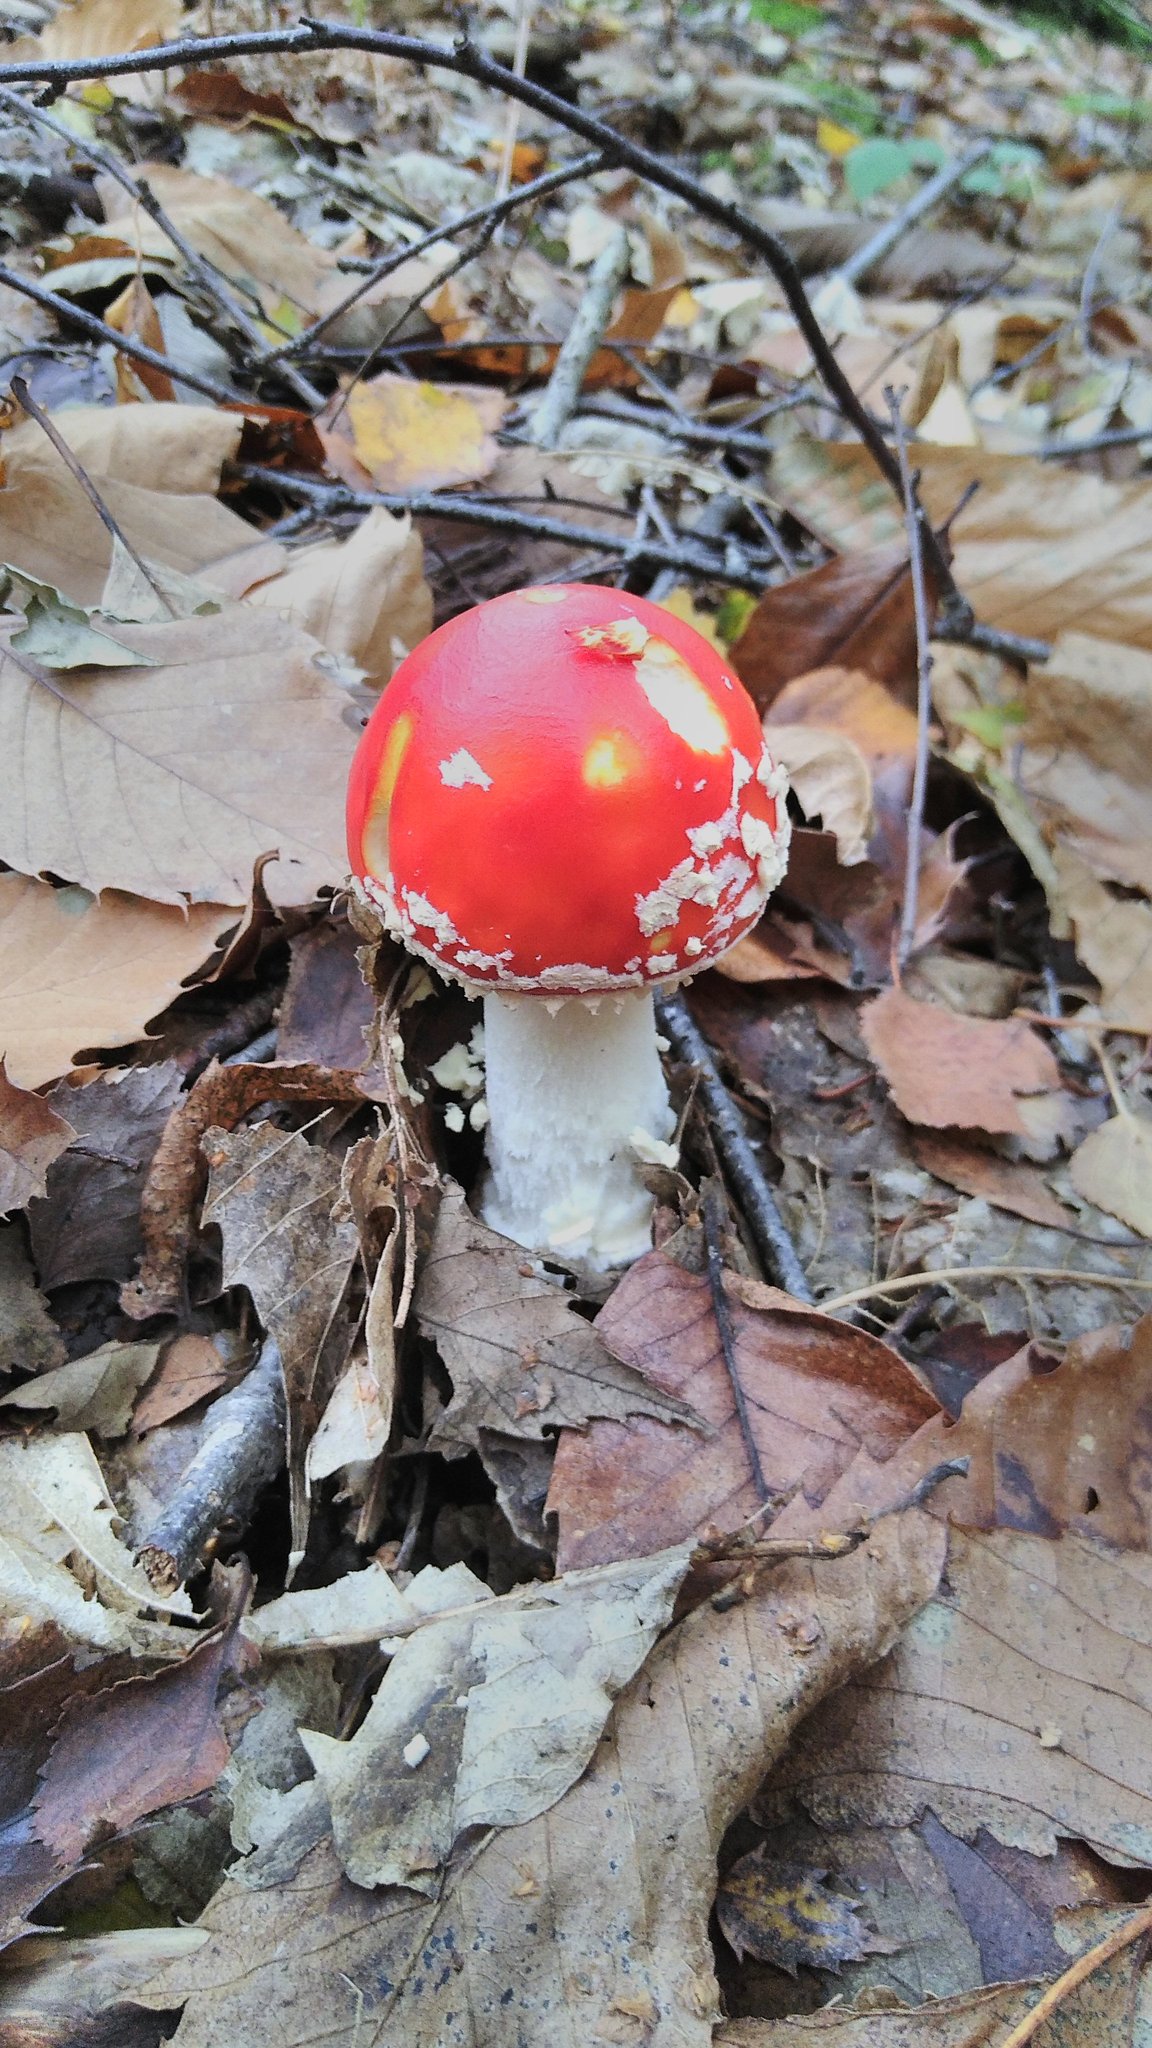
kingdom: Fungi
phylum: Basidiomycota
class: Agaricomycetes
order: Agaricales
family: Amanitaceae
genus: Amanita
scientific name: Amanita muscaria
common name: Fly agaric
